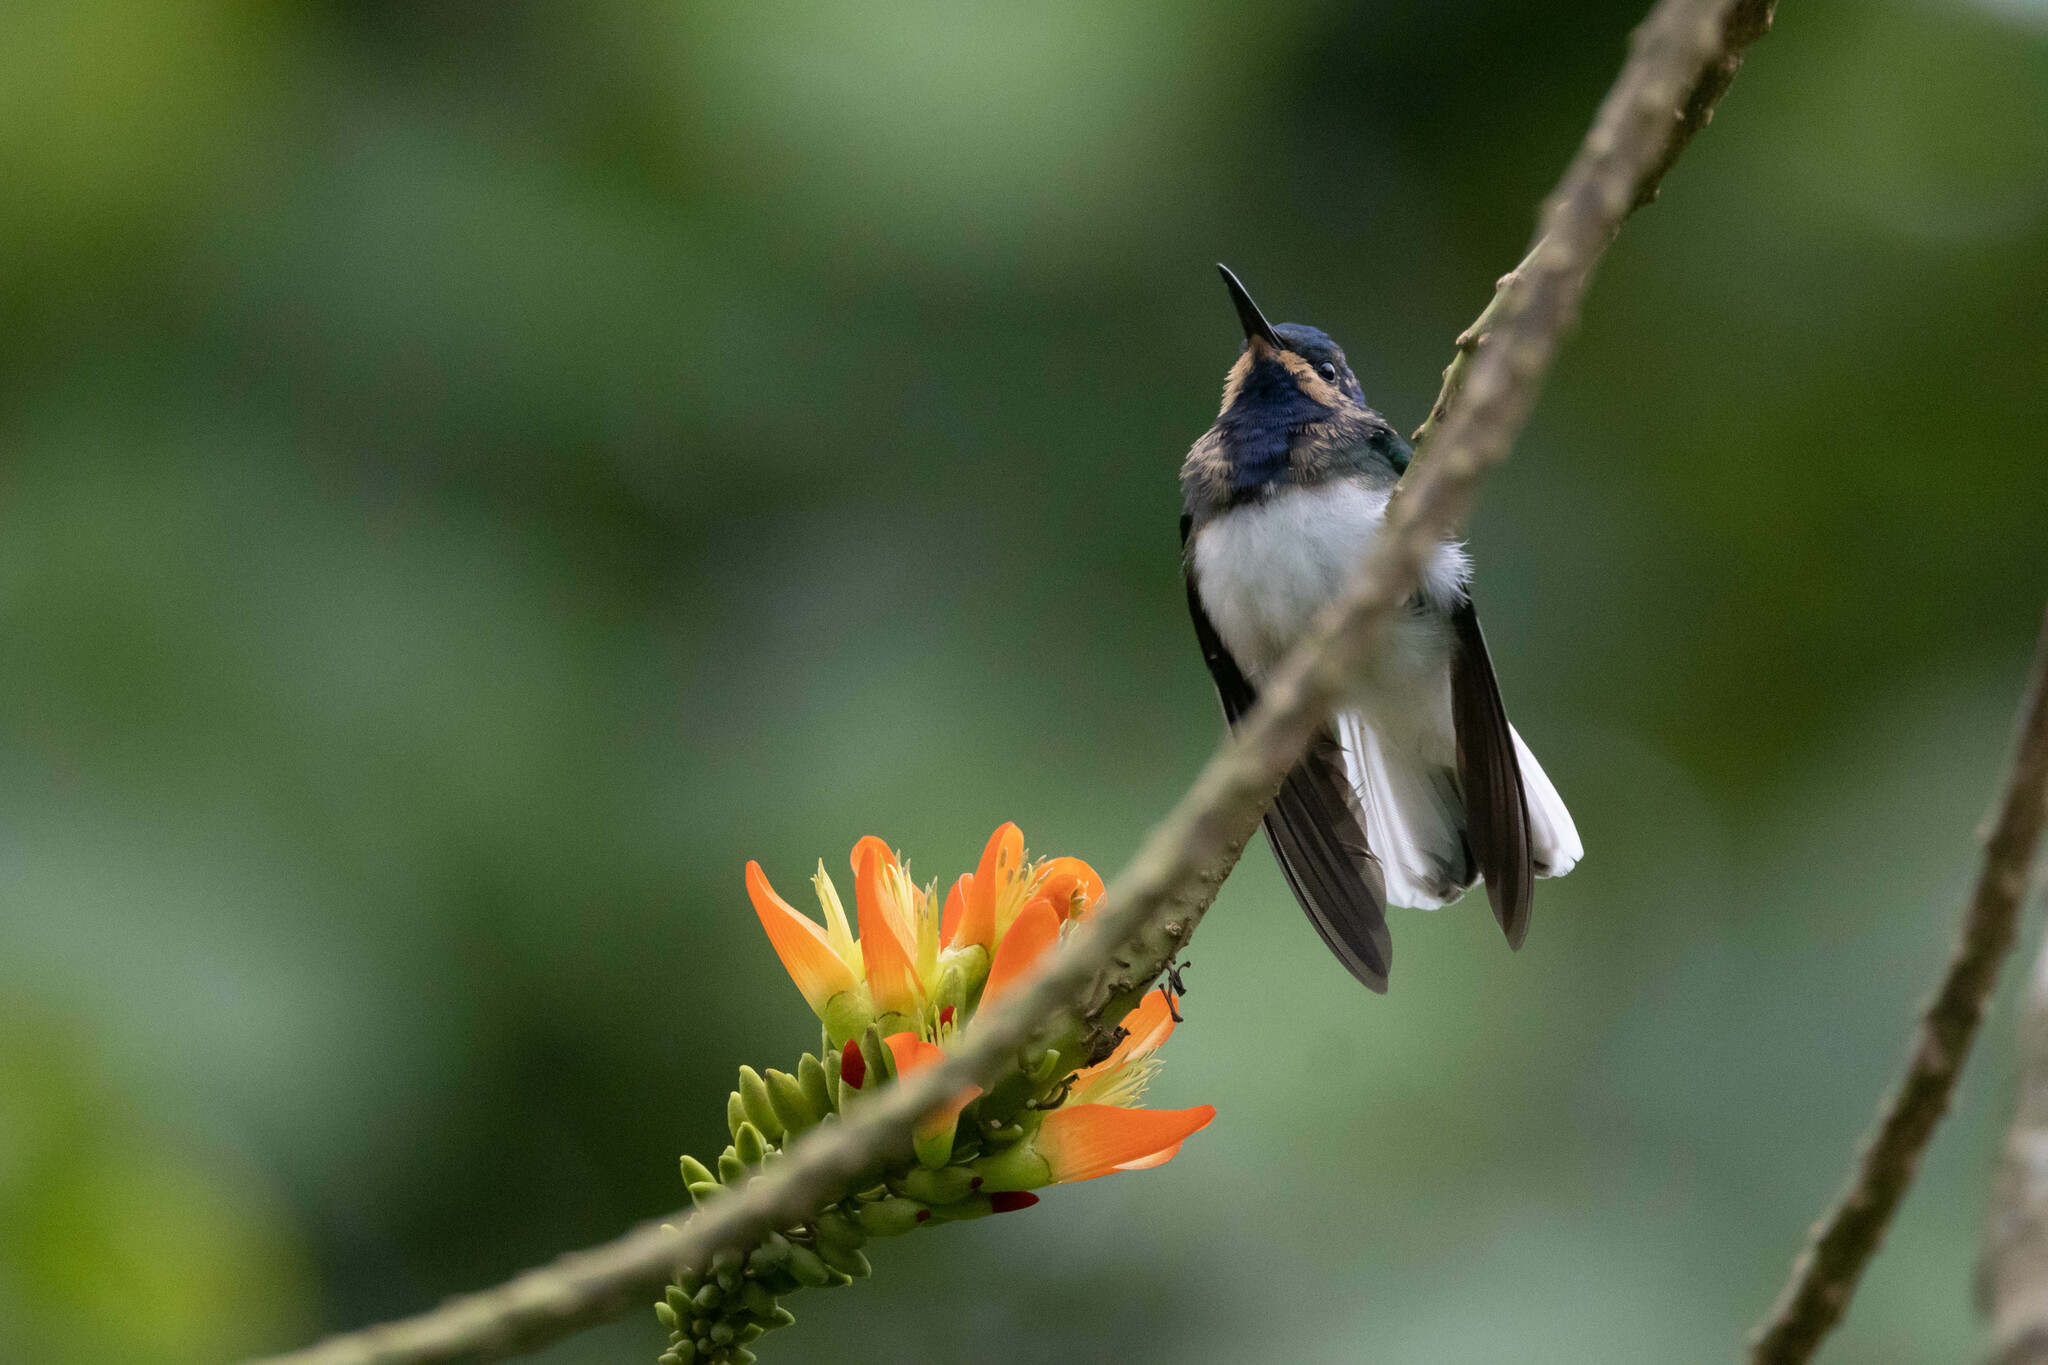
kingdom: Animalia
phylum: Chordata
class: Aves
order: Apodiformes
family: Trochilidae
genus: Florisuga
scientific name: Florisuga mellivora
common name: White-necked jacobin
